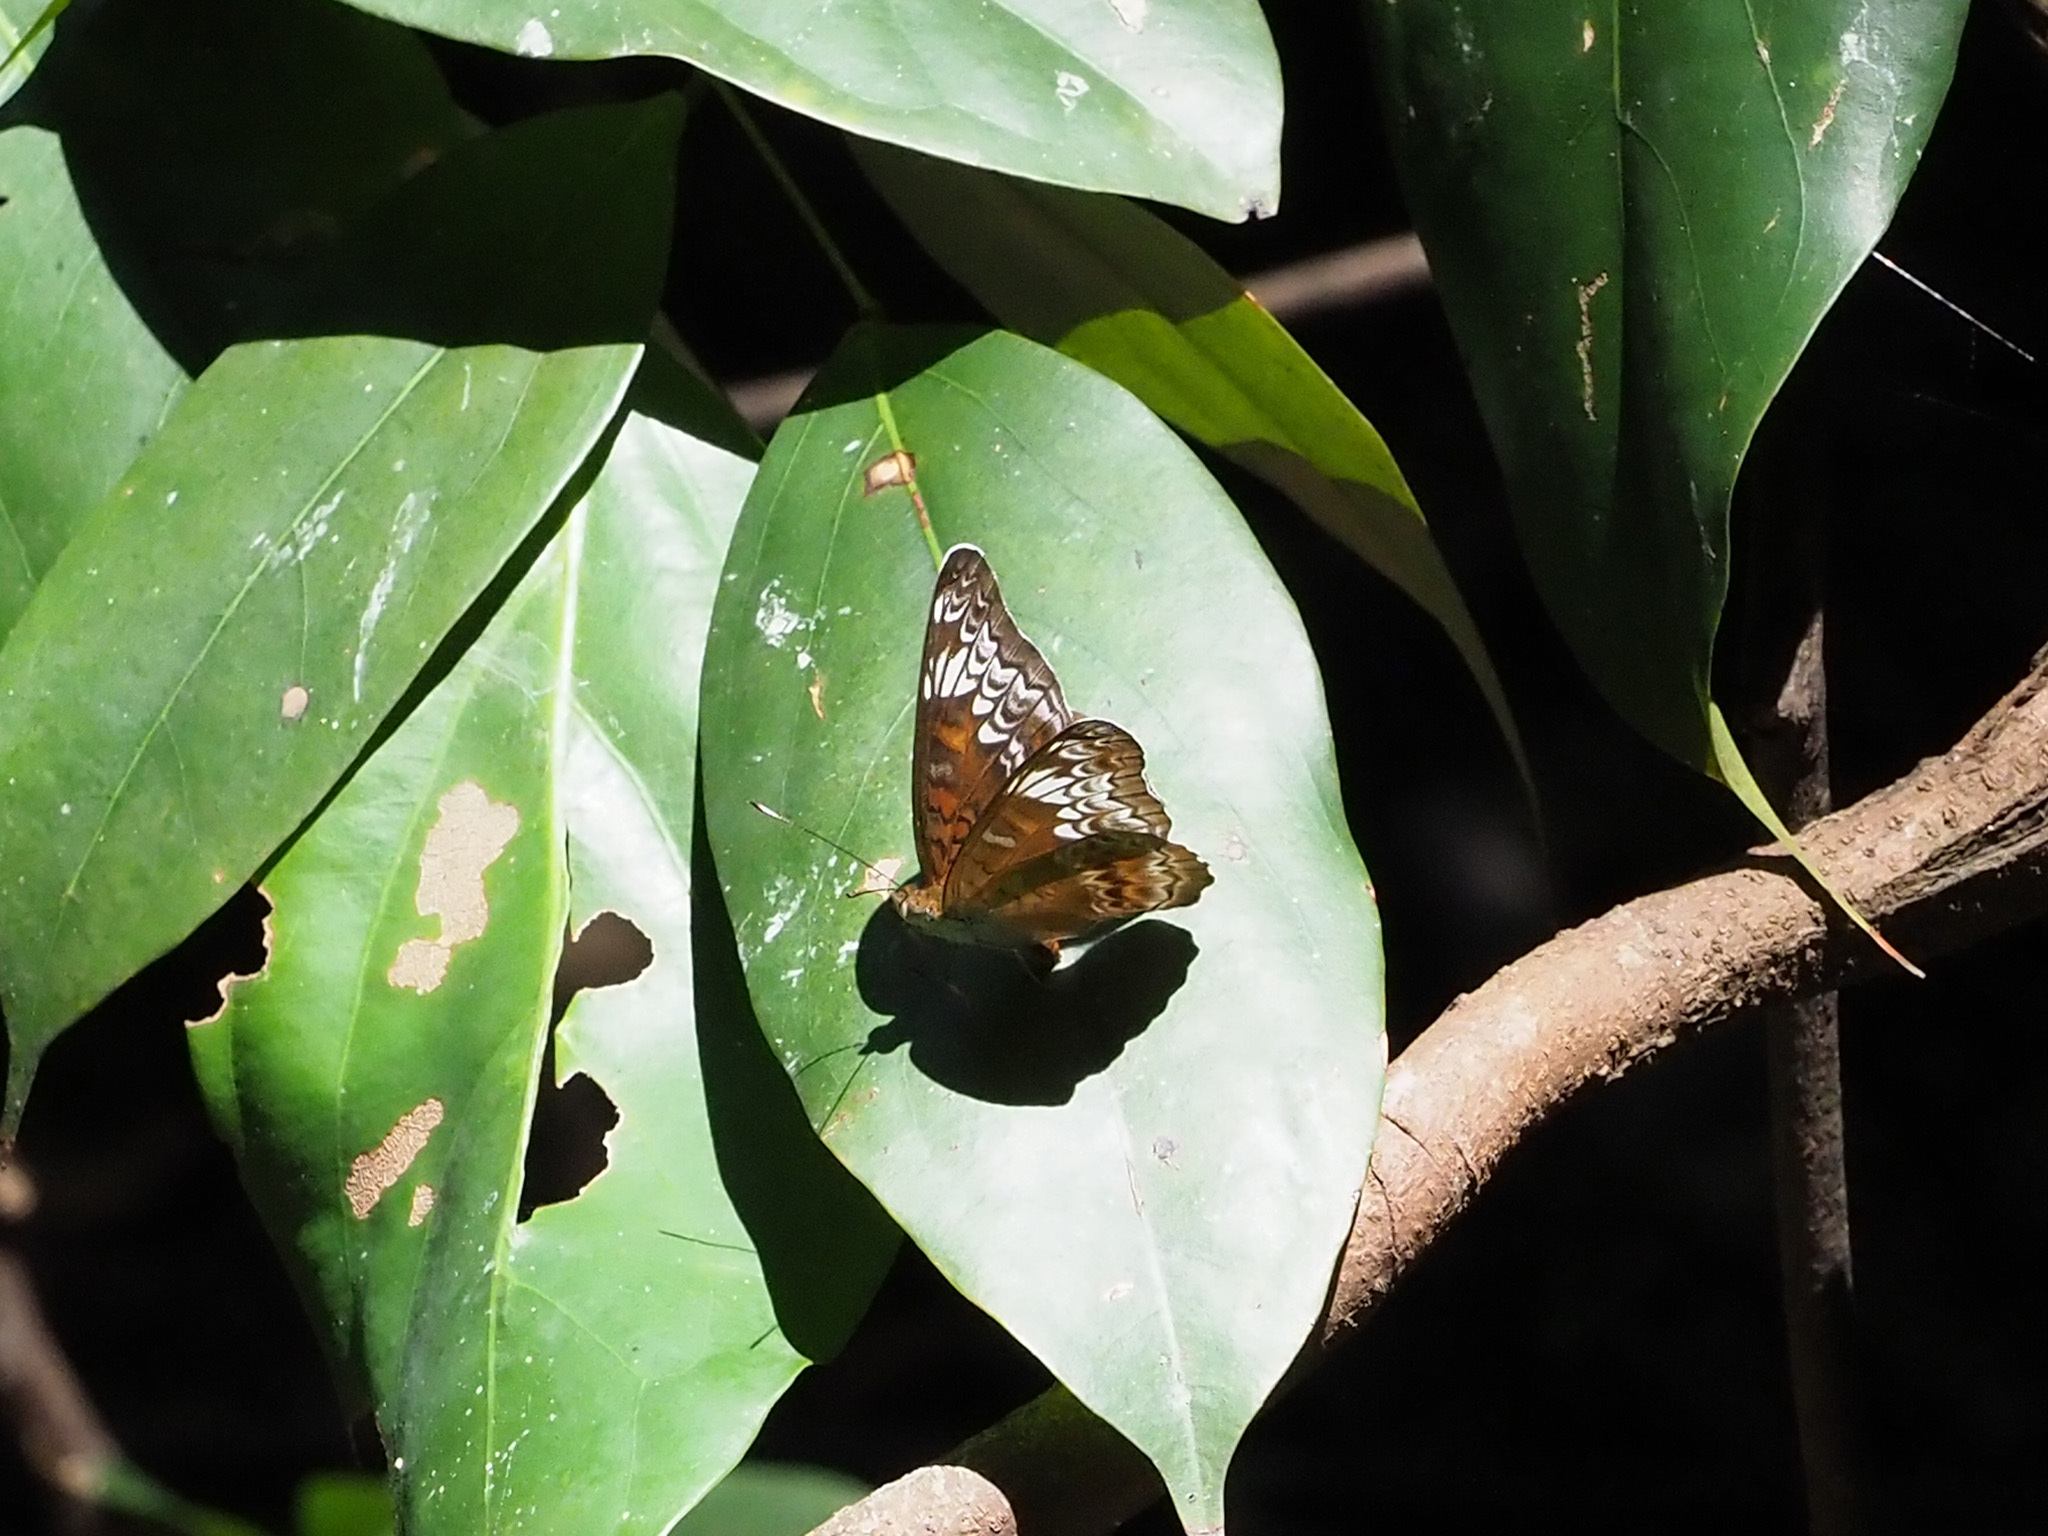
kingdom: Animalia
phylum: Arthropoda
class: Insecta
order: Lepidoptera
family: Nymphalidae
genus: Lebadea
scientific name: Lebadea martha
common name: Knight
